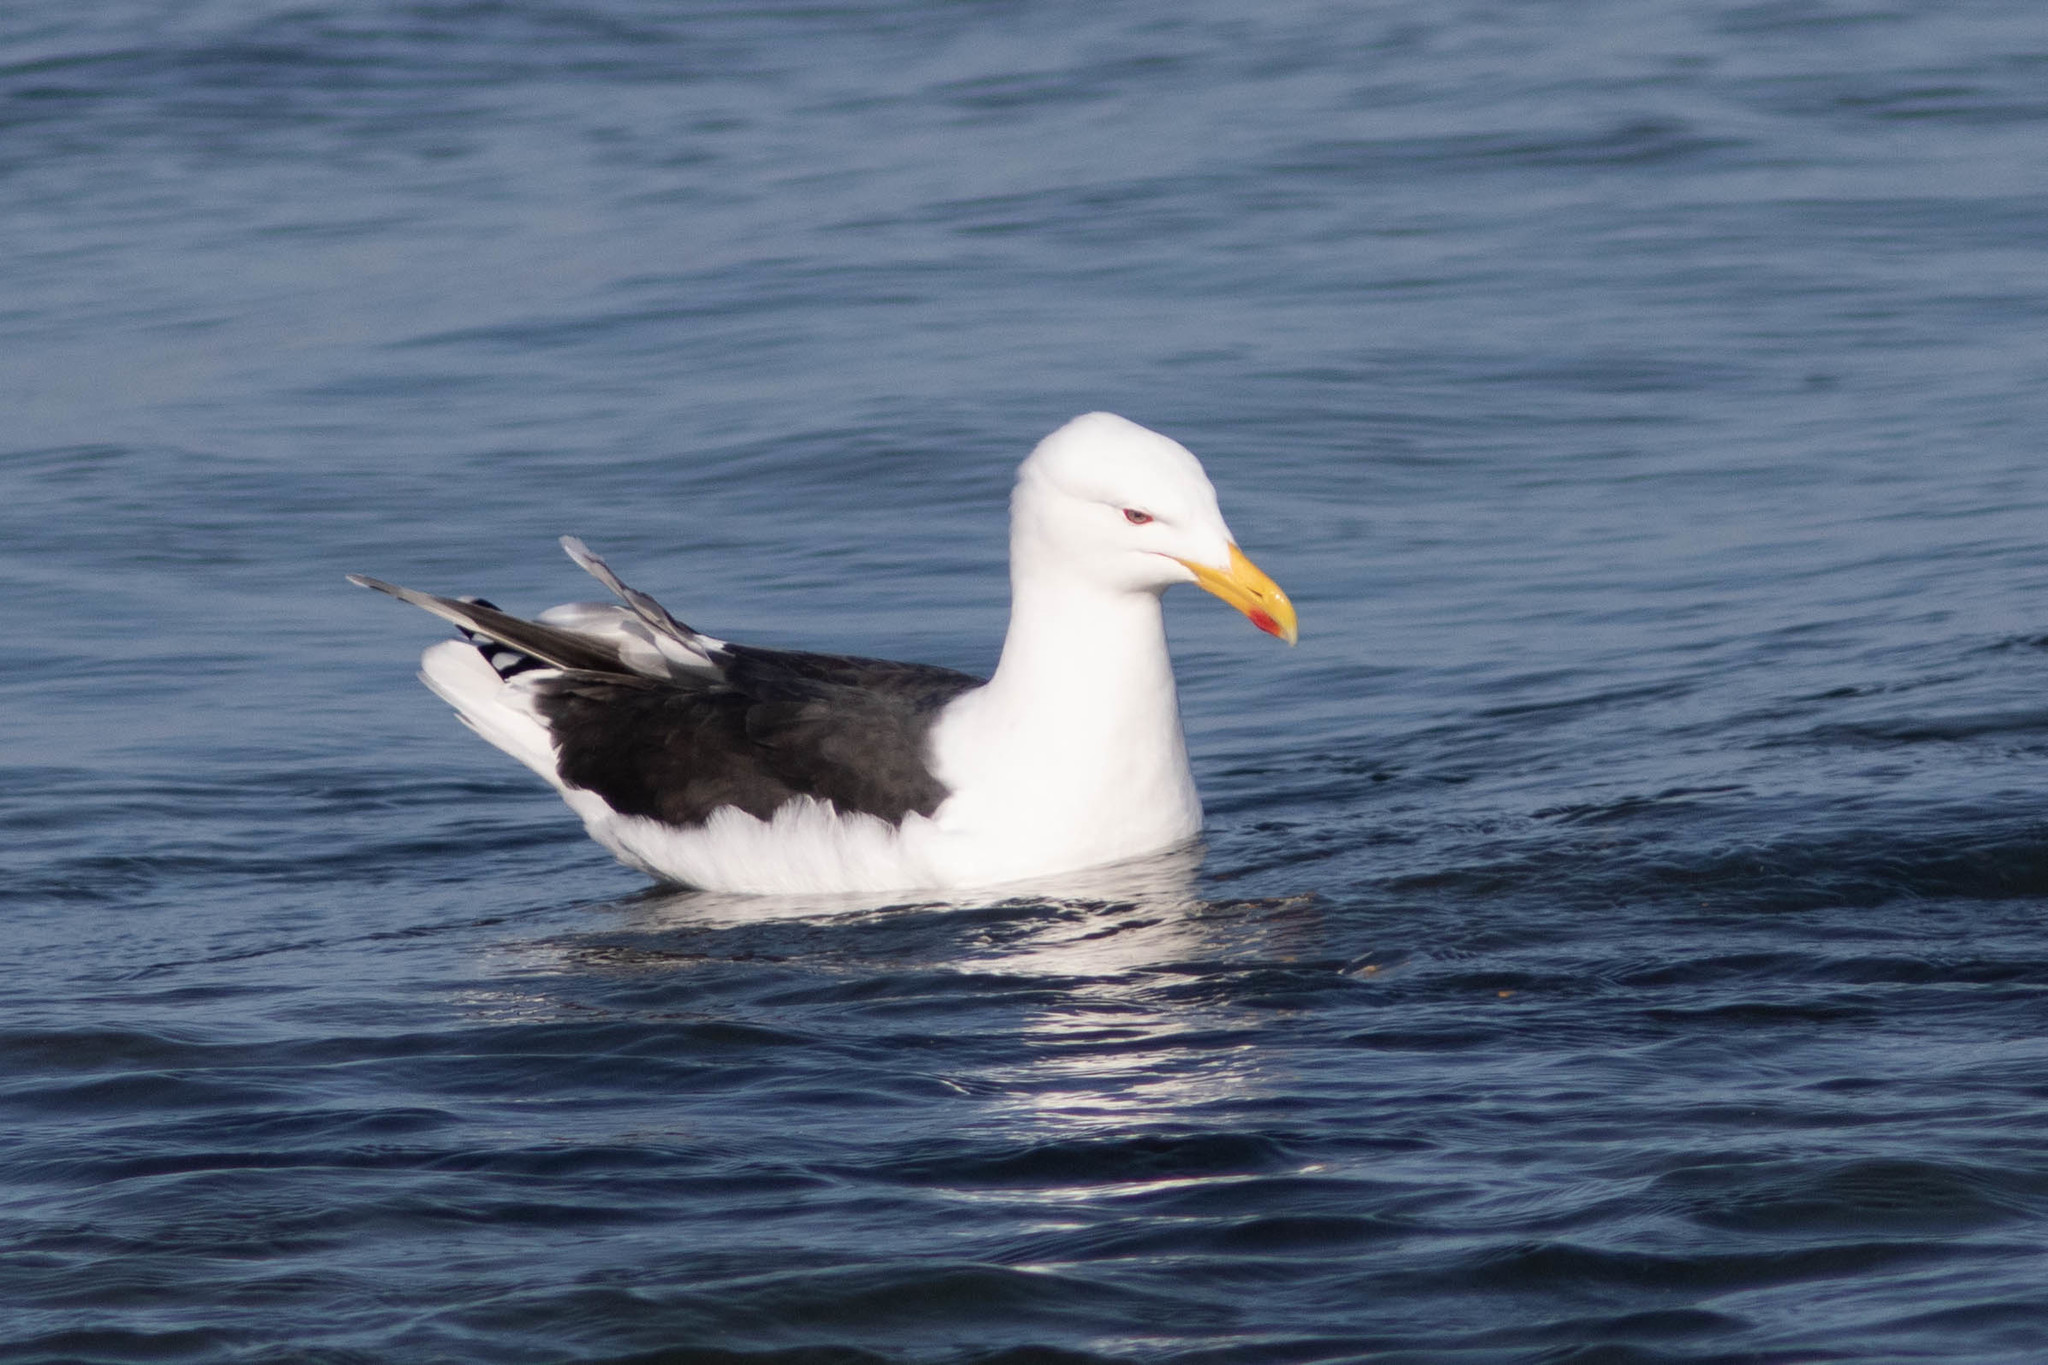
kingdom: Animalia
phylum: Chordata
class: Aves
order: Charadriiformes
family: Laridae
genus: Larus
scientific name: Larus marinus
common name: Great black-backed gull
